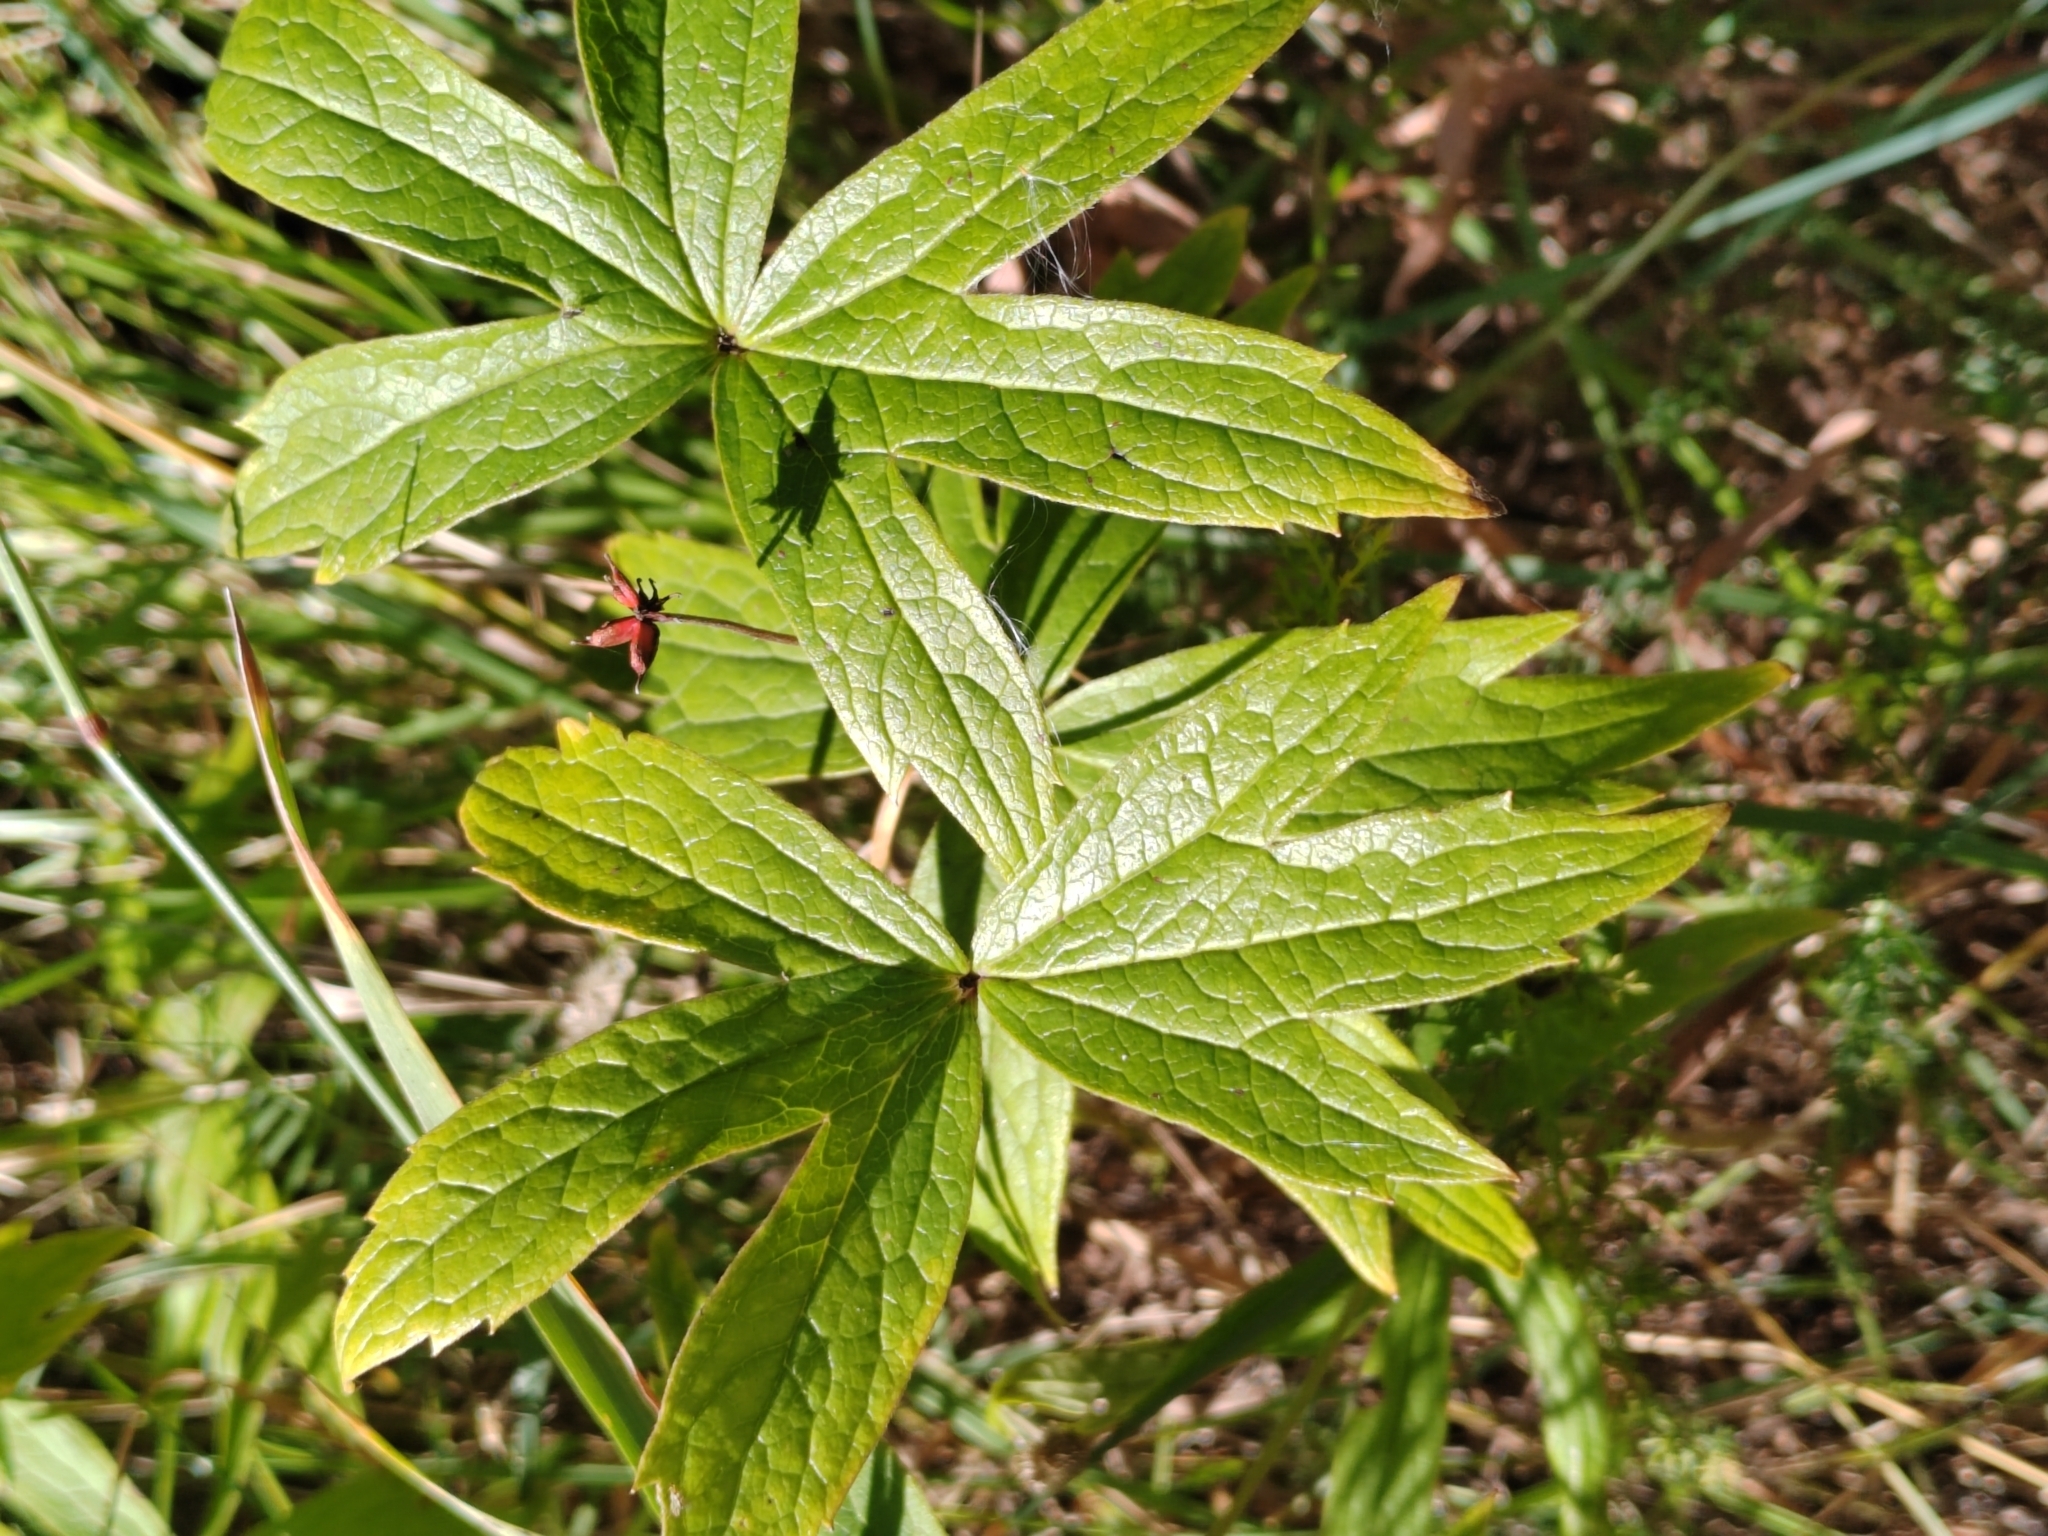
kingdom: Plantae
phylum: Tracheophyta
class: Magnoliopsida
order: Ranunculales
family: Ranunculaceae
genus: Anemonastrum
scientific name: Anemonastrum dichotomum
